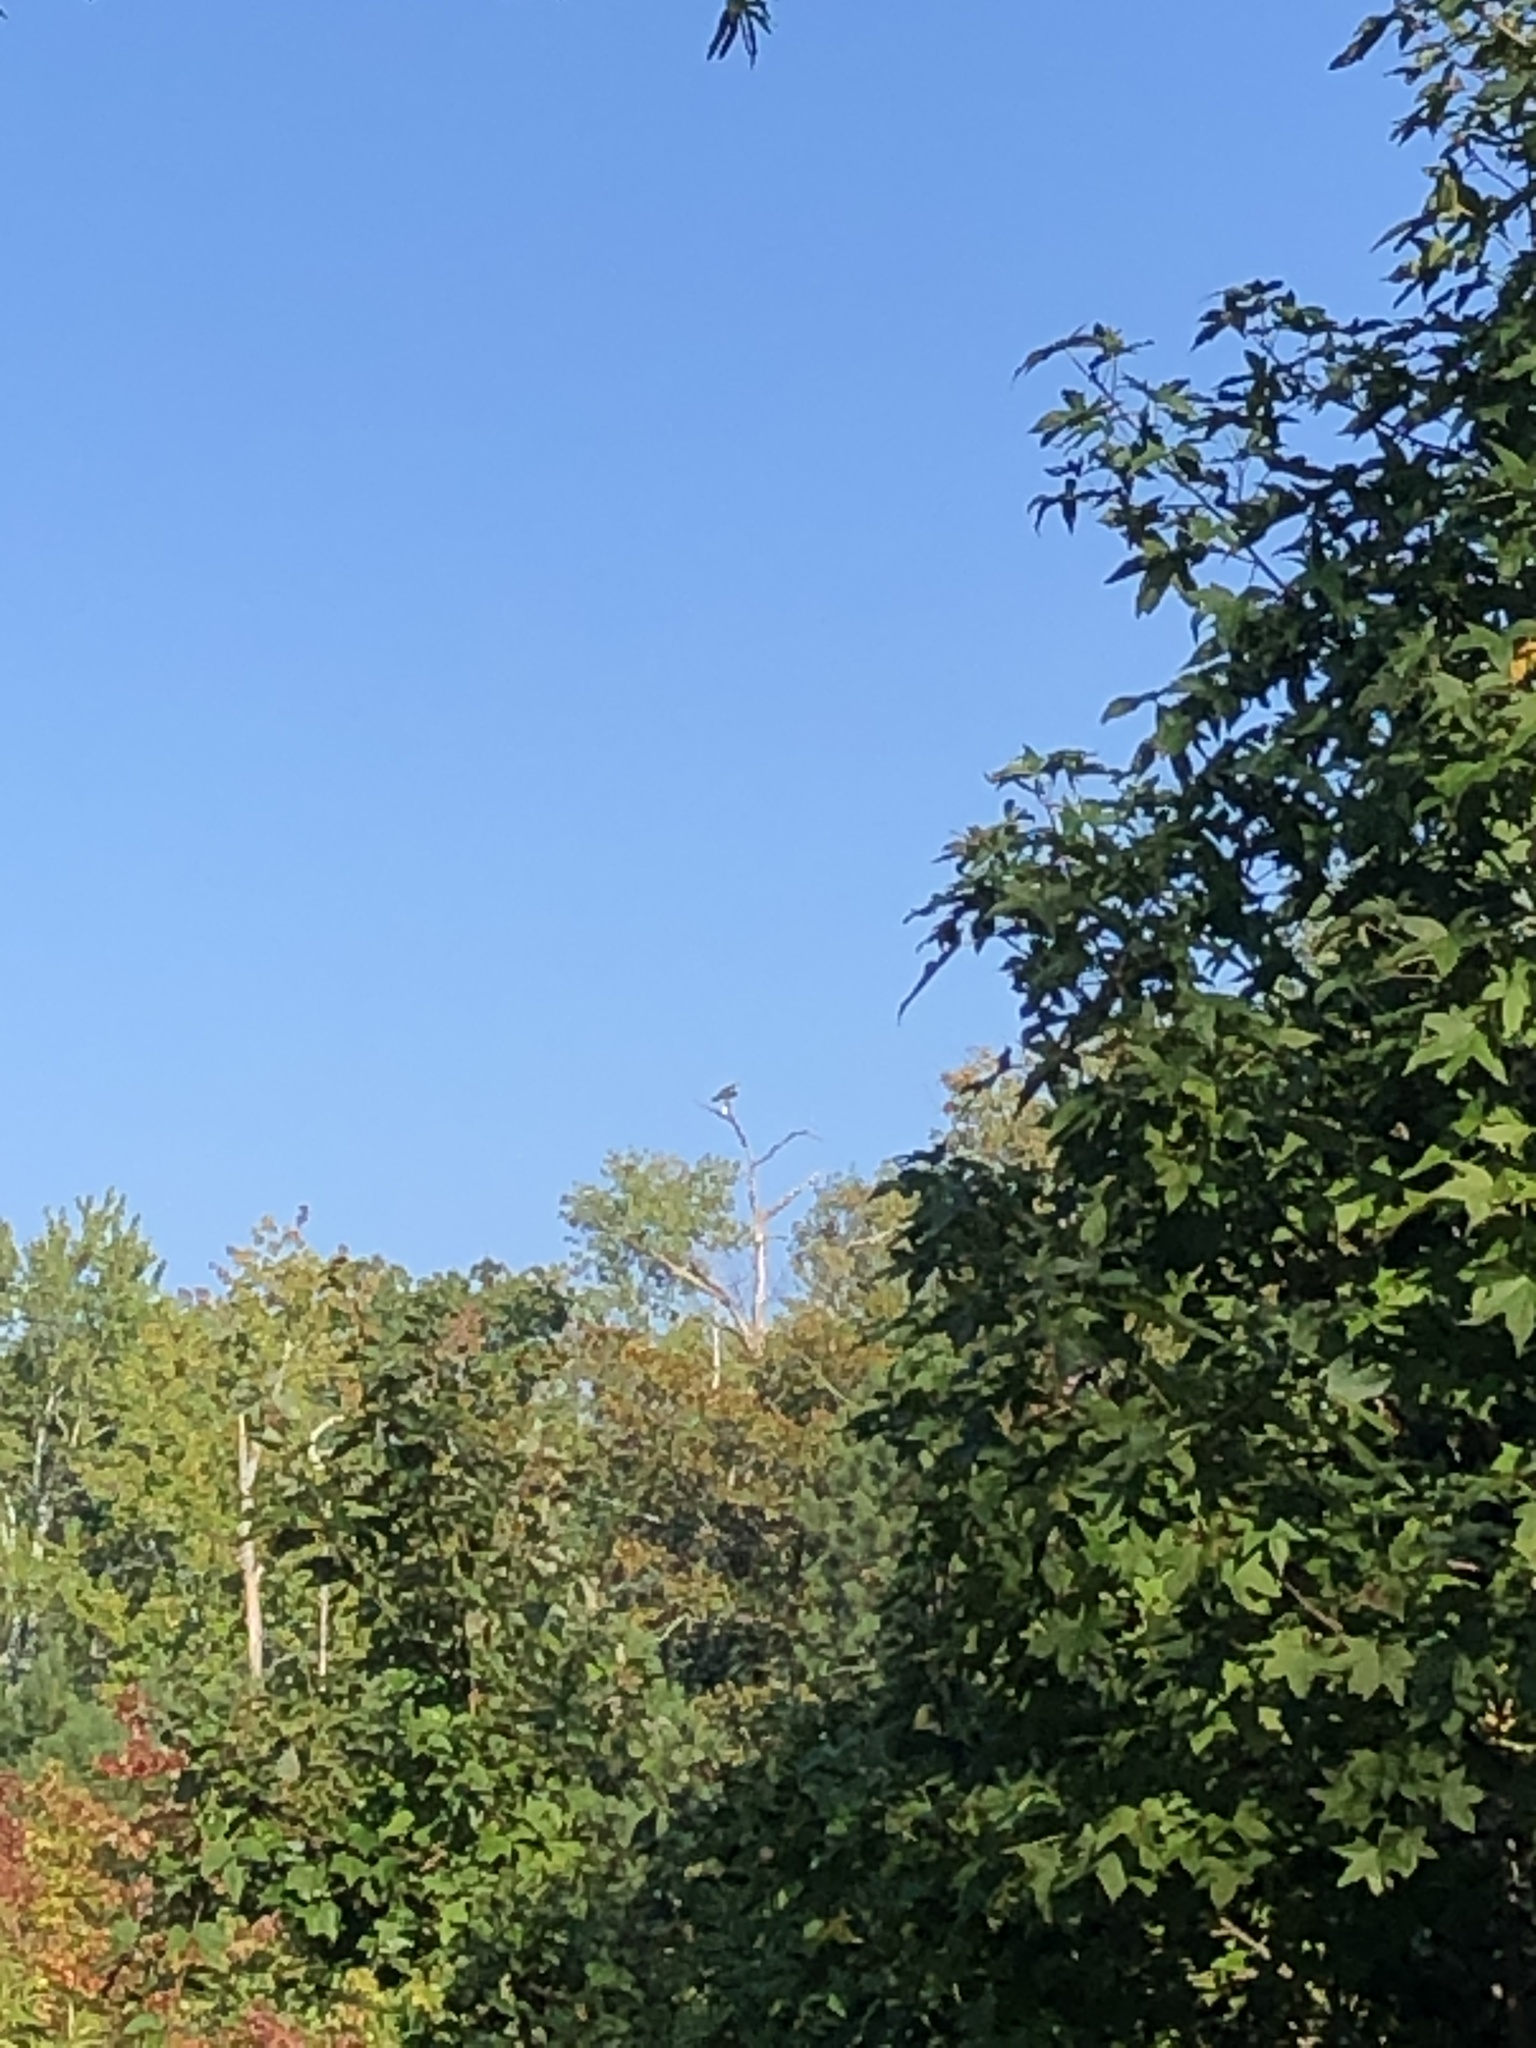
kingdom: Animalia
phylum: Chordata
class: Aves
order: Accipitriformes
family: Pandionidae
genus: Pandion
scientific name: Pandion haliaetus
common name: Osprey
